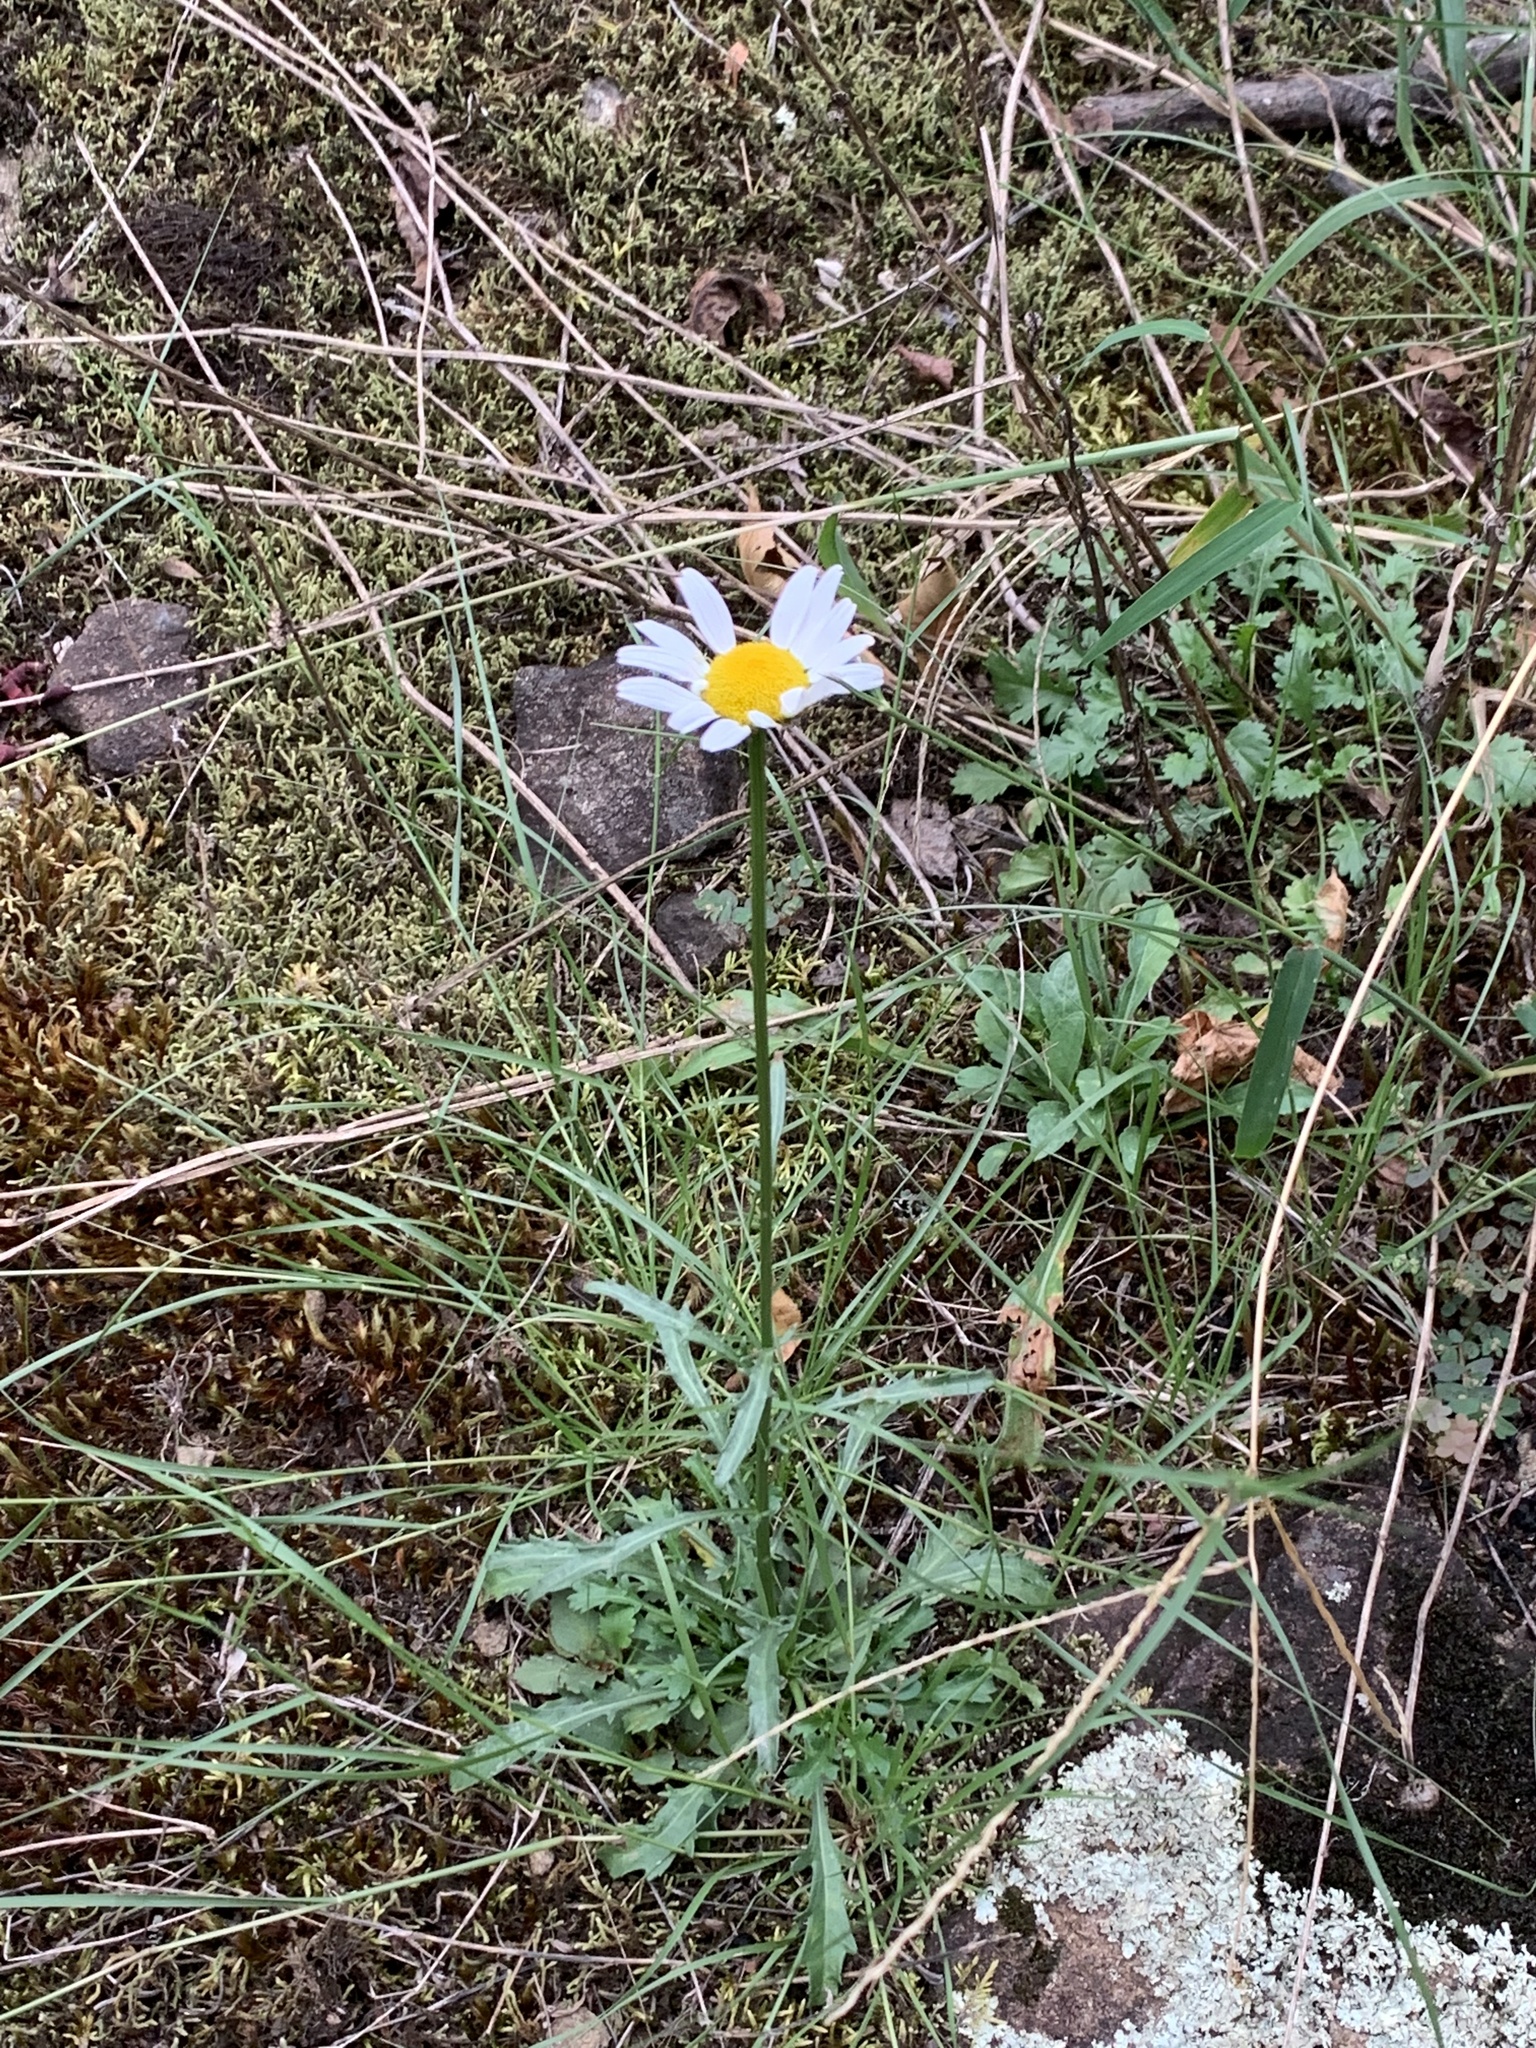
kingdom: Plantae
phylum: Tracheophyta
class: Magnoliopsida
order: Asterales
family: Asteraceae
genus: Leucanthemum
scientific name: Leucanthemum vulgare
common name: Oxeye daisy
